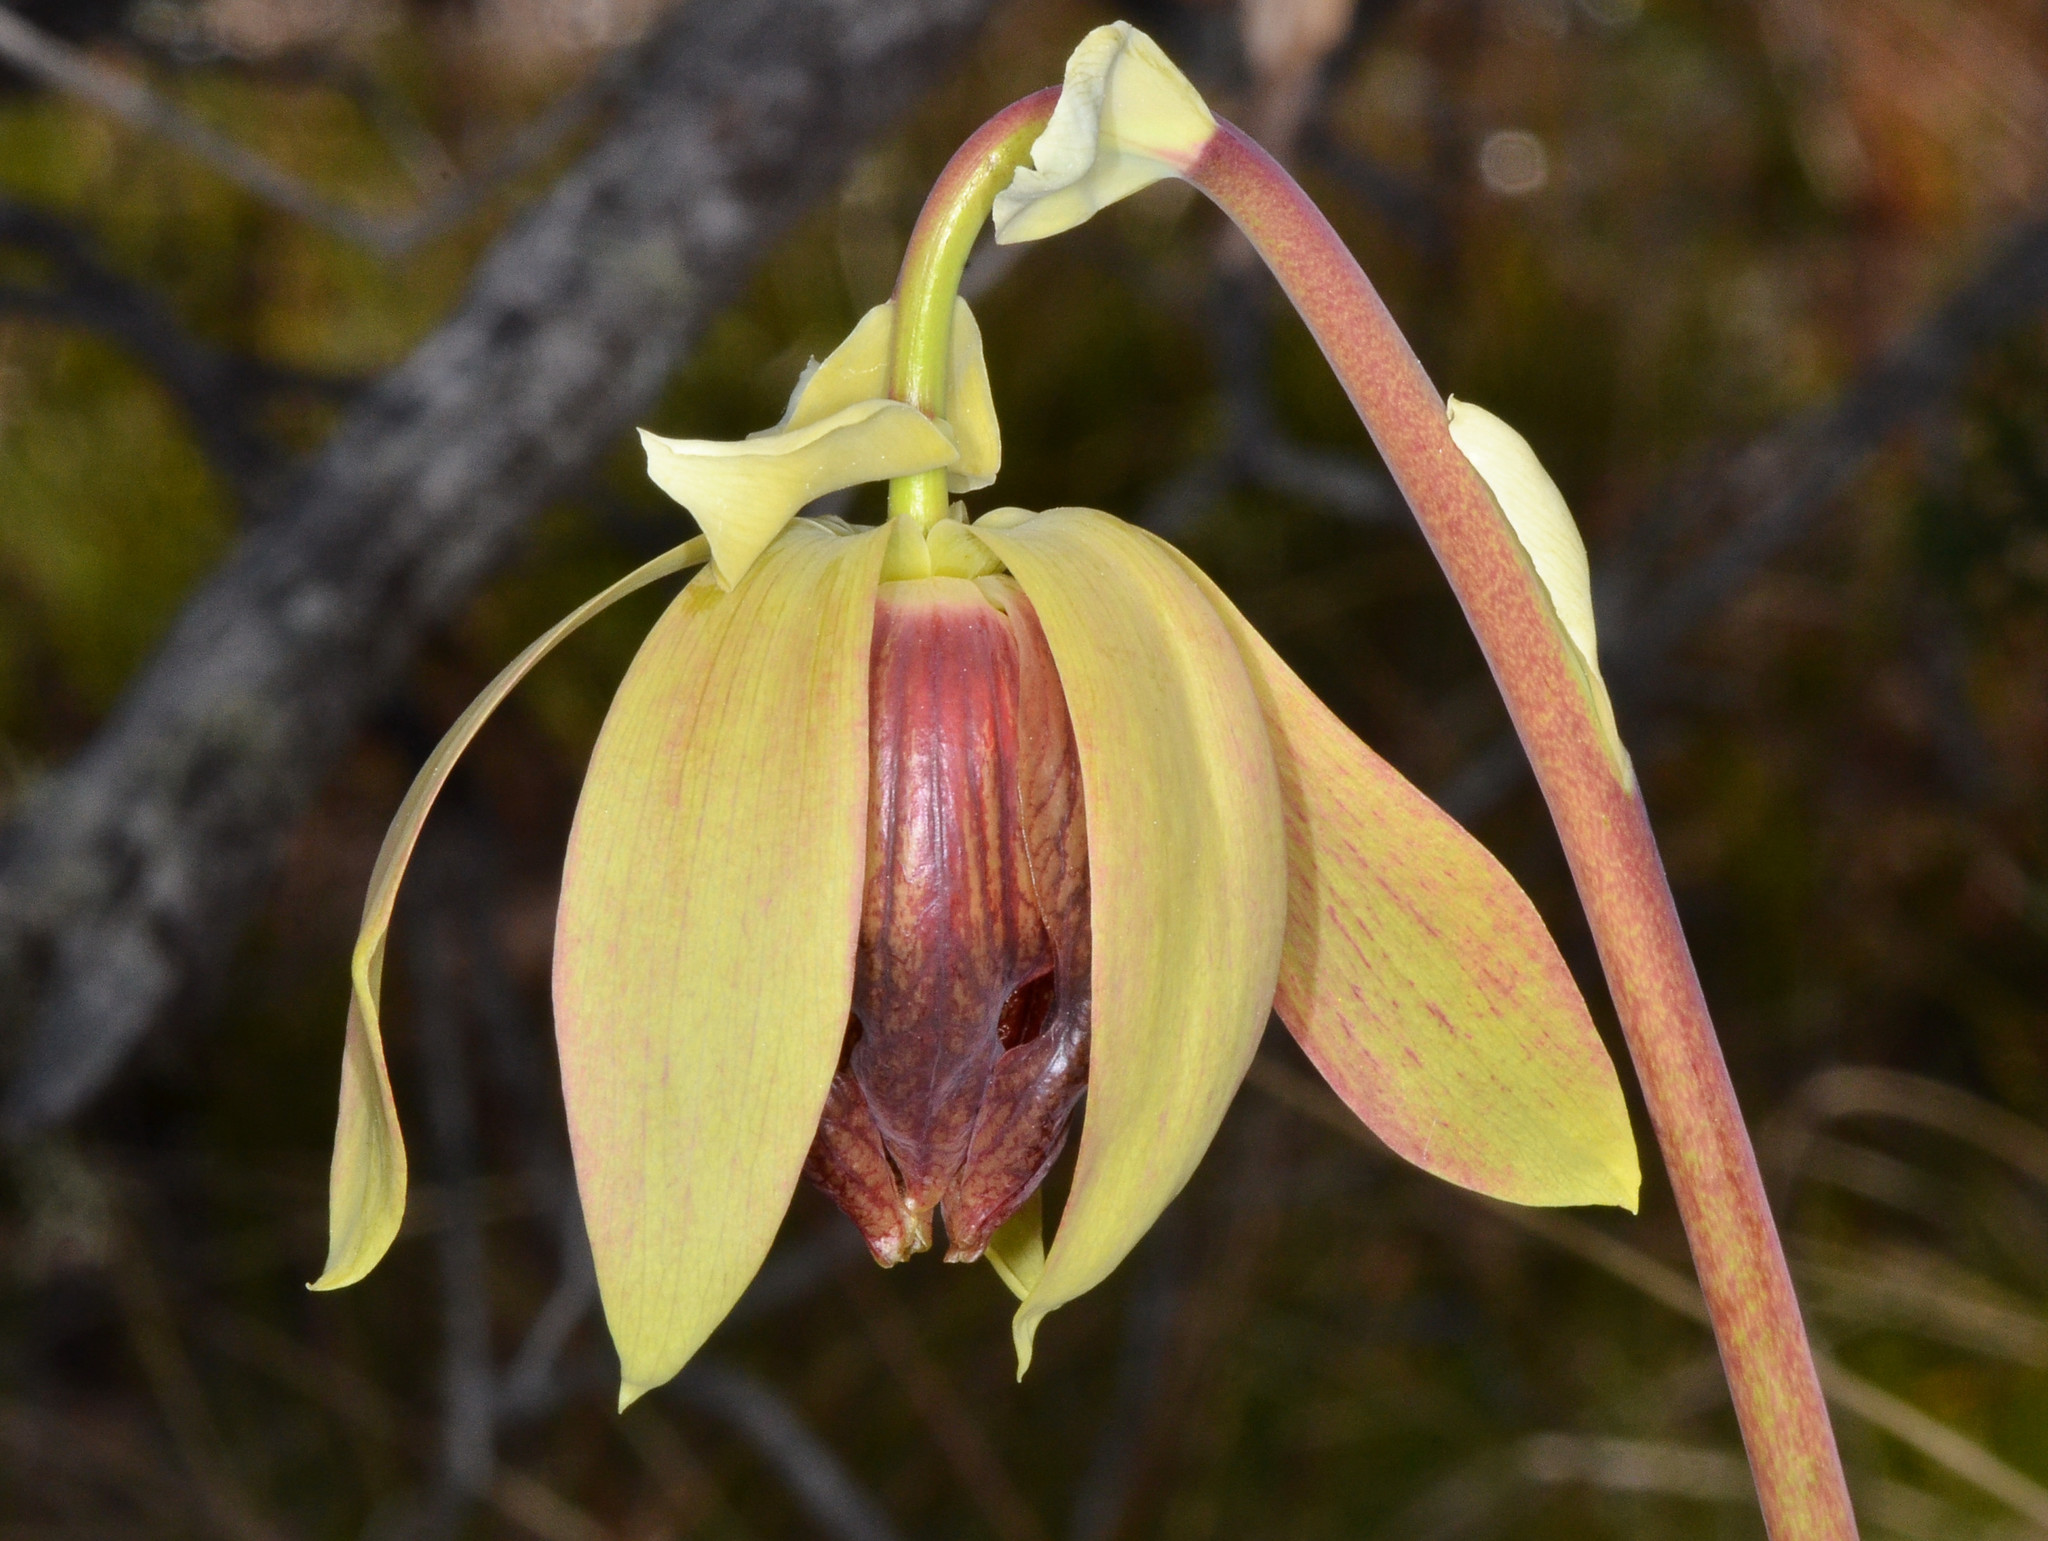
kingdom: Plantae
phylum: Tracheophyta
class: Magnoliopsida
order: Ericales
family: Sarraceniaceae
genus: Darlingtonia
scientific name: Darlingtonia californica
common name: California pitcher plant
